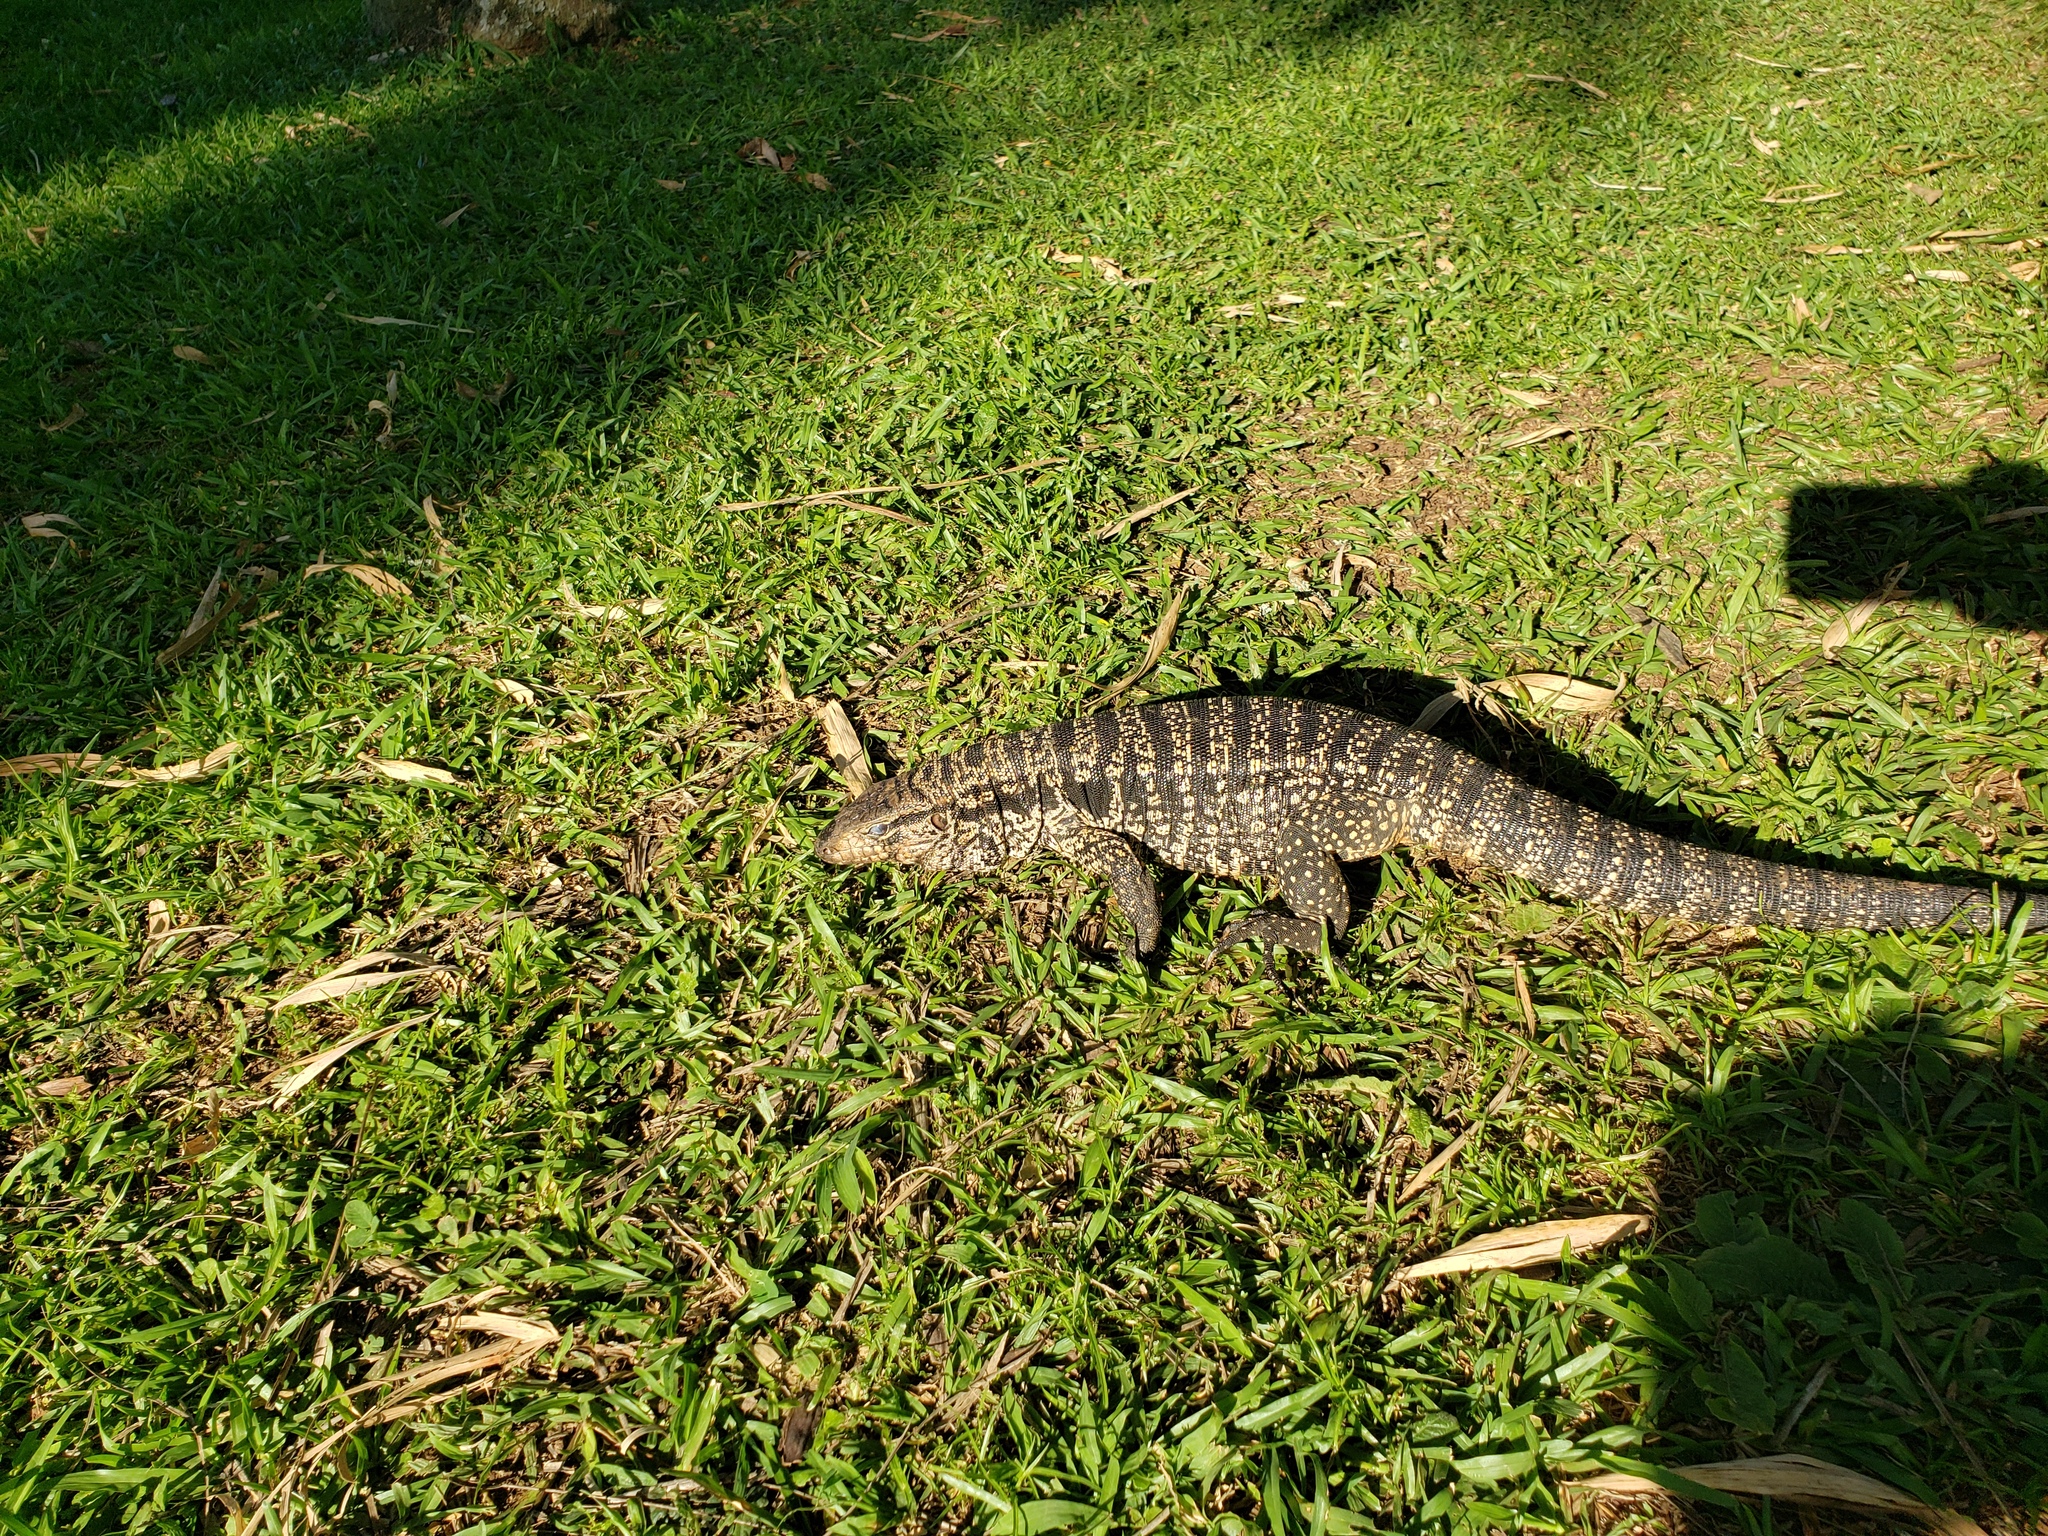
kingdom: Animalia
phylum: Chordata
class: Squamata
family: Teiidae
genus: Salvator
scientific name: Salvator merianae
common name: Argentine black and white tegu
